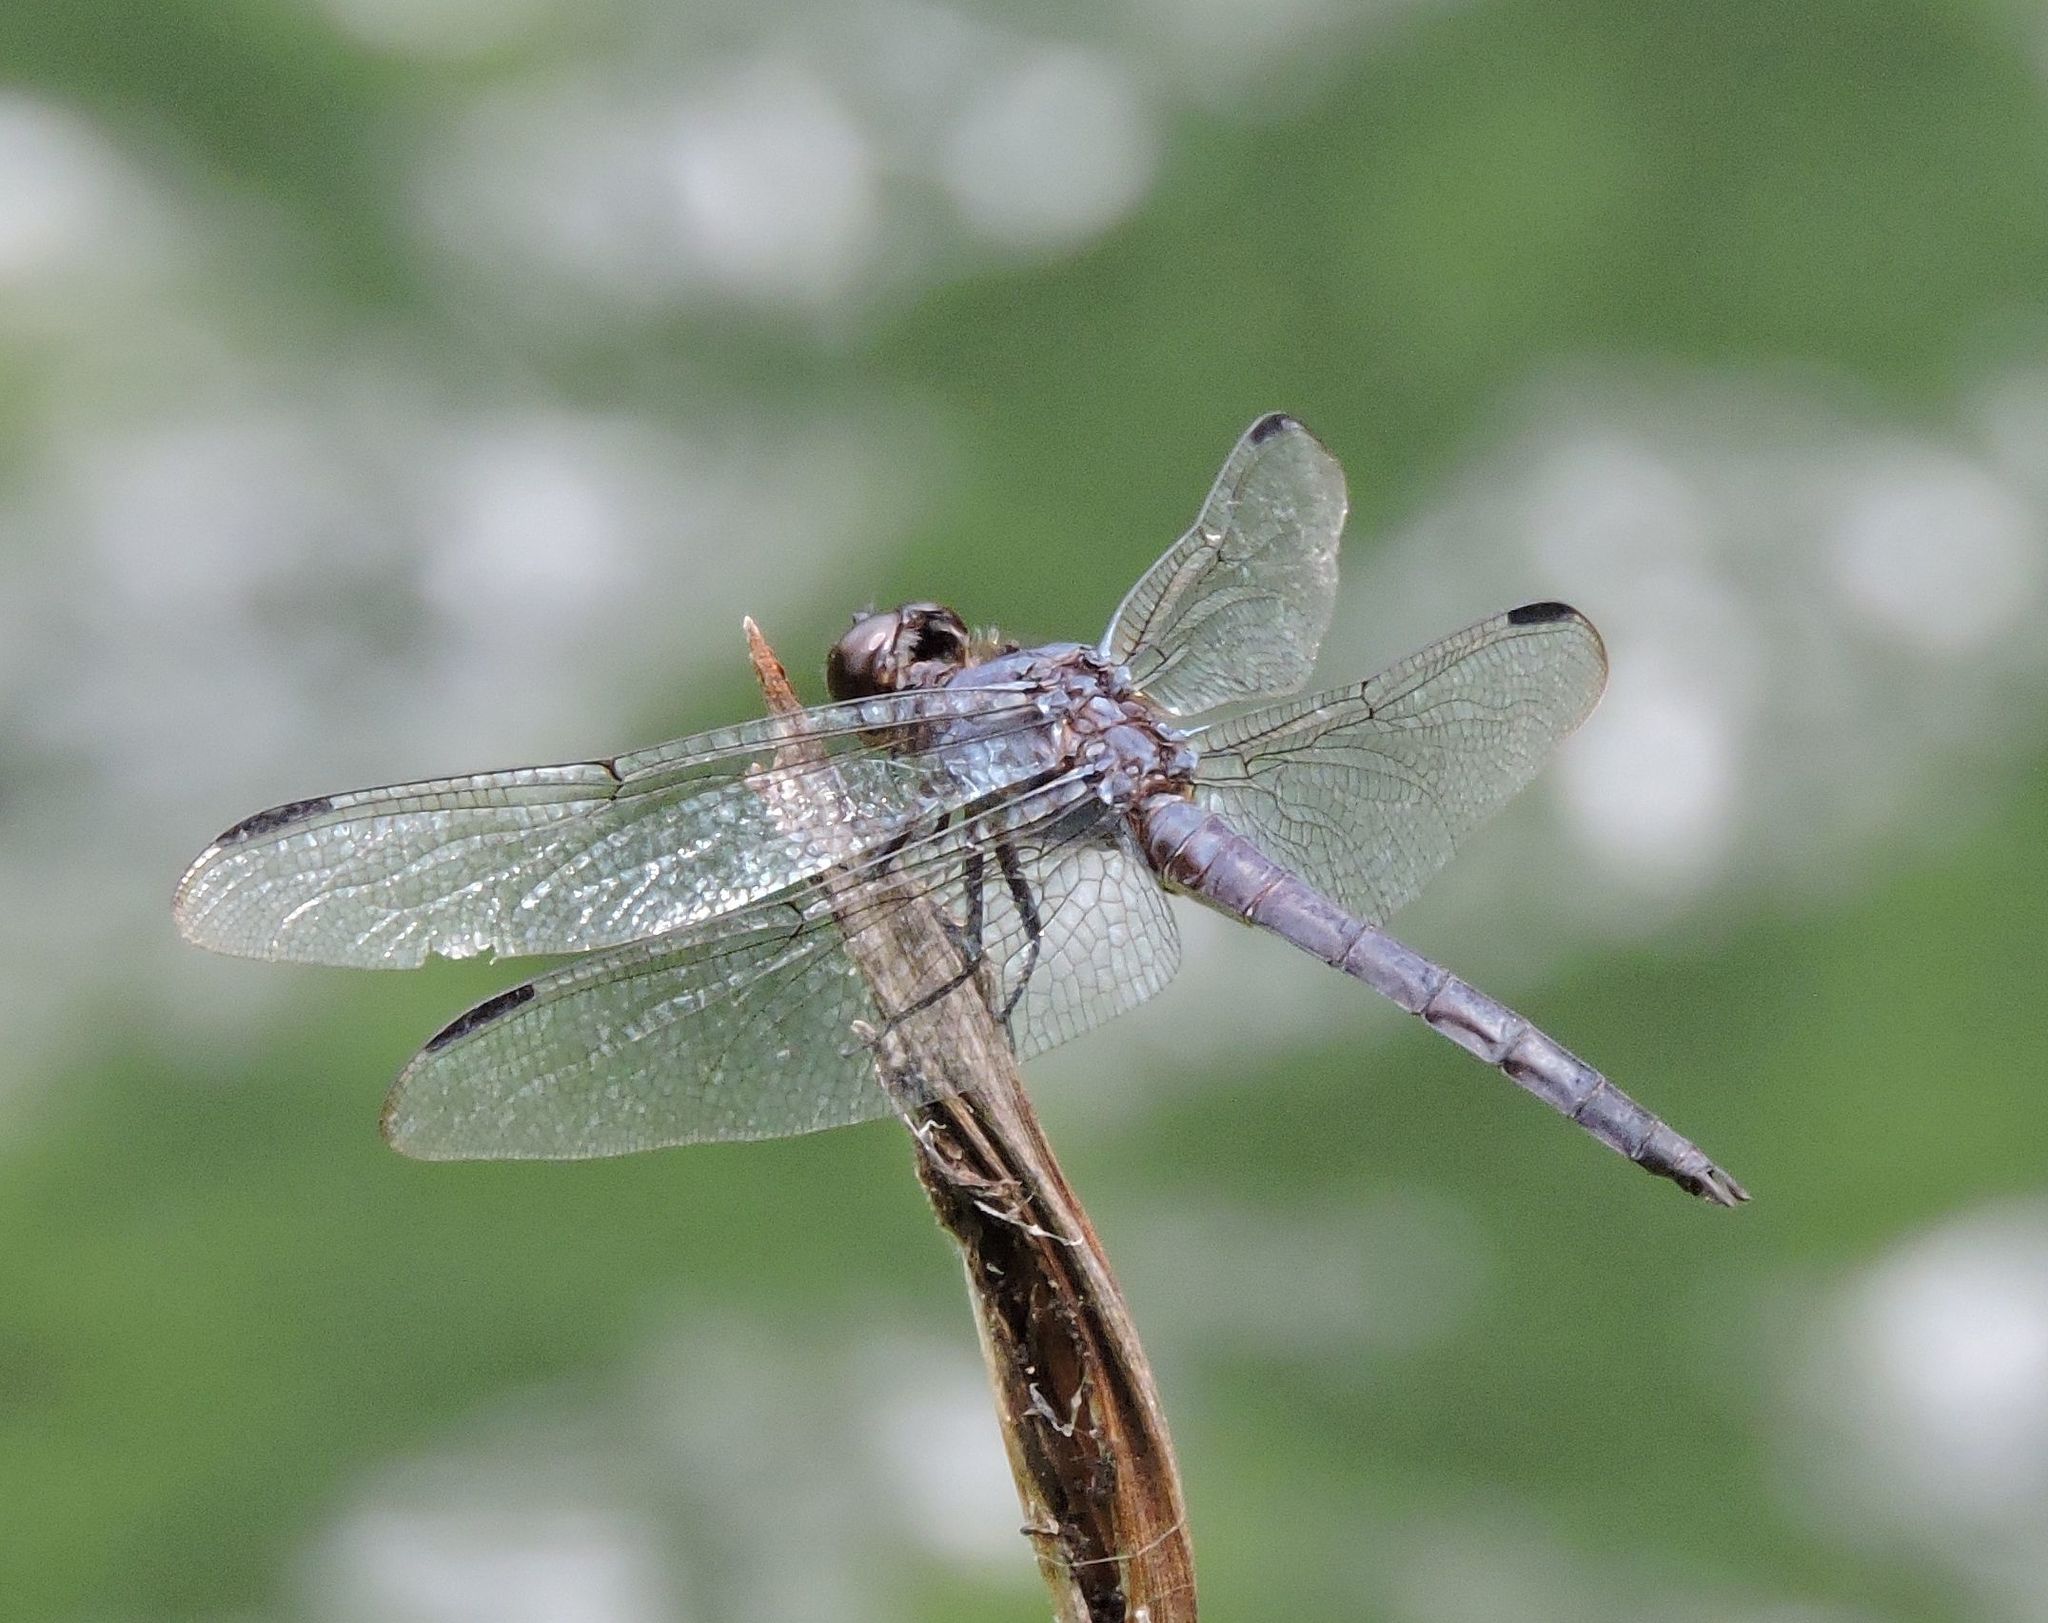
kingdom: Animalia
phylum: Arthropoda
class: Insecta
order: Odonata
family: Libellulidae
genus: Libellula
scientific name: Libellula incesta
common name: Slaty skimmer
